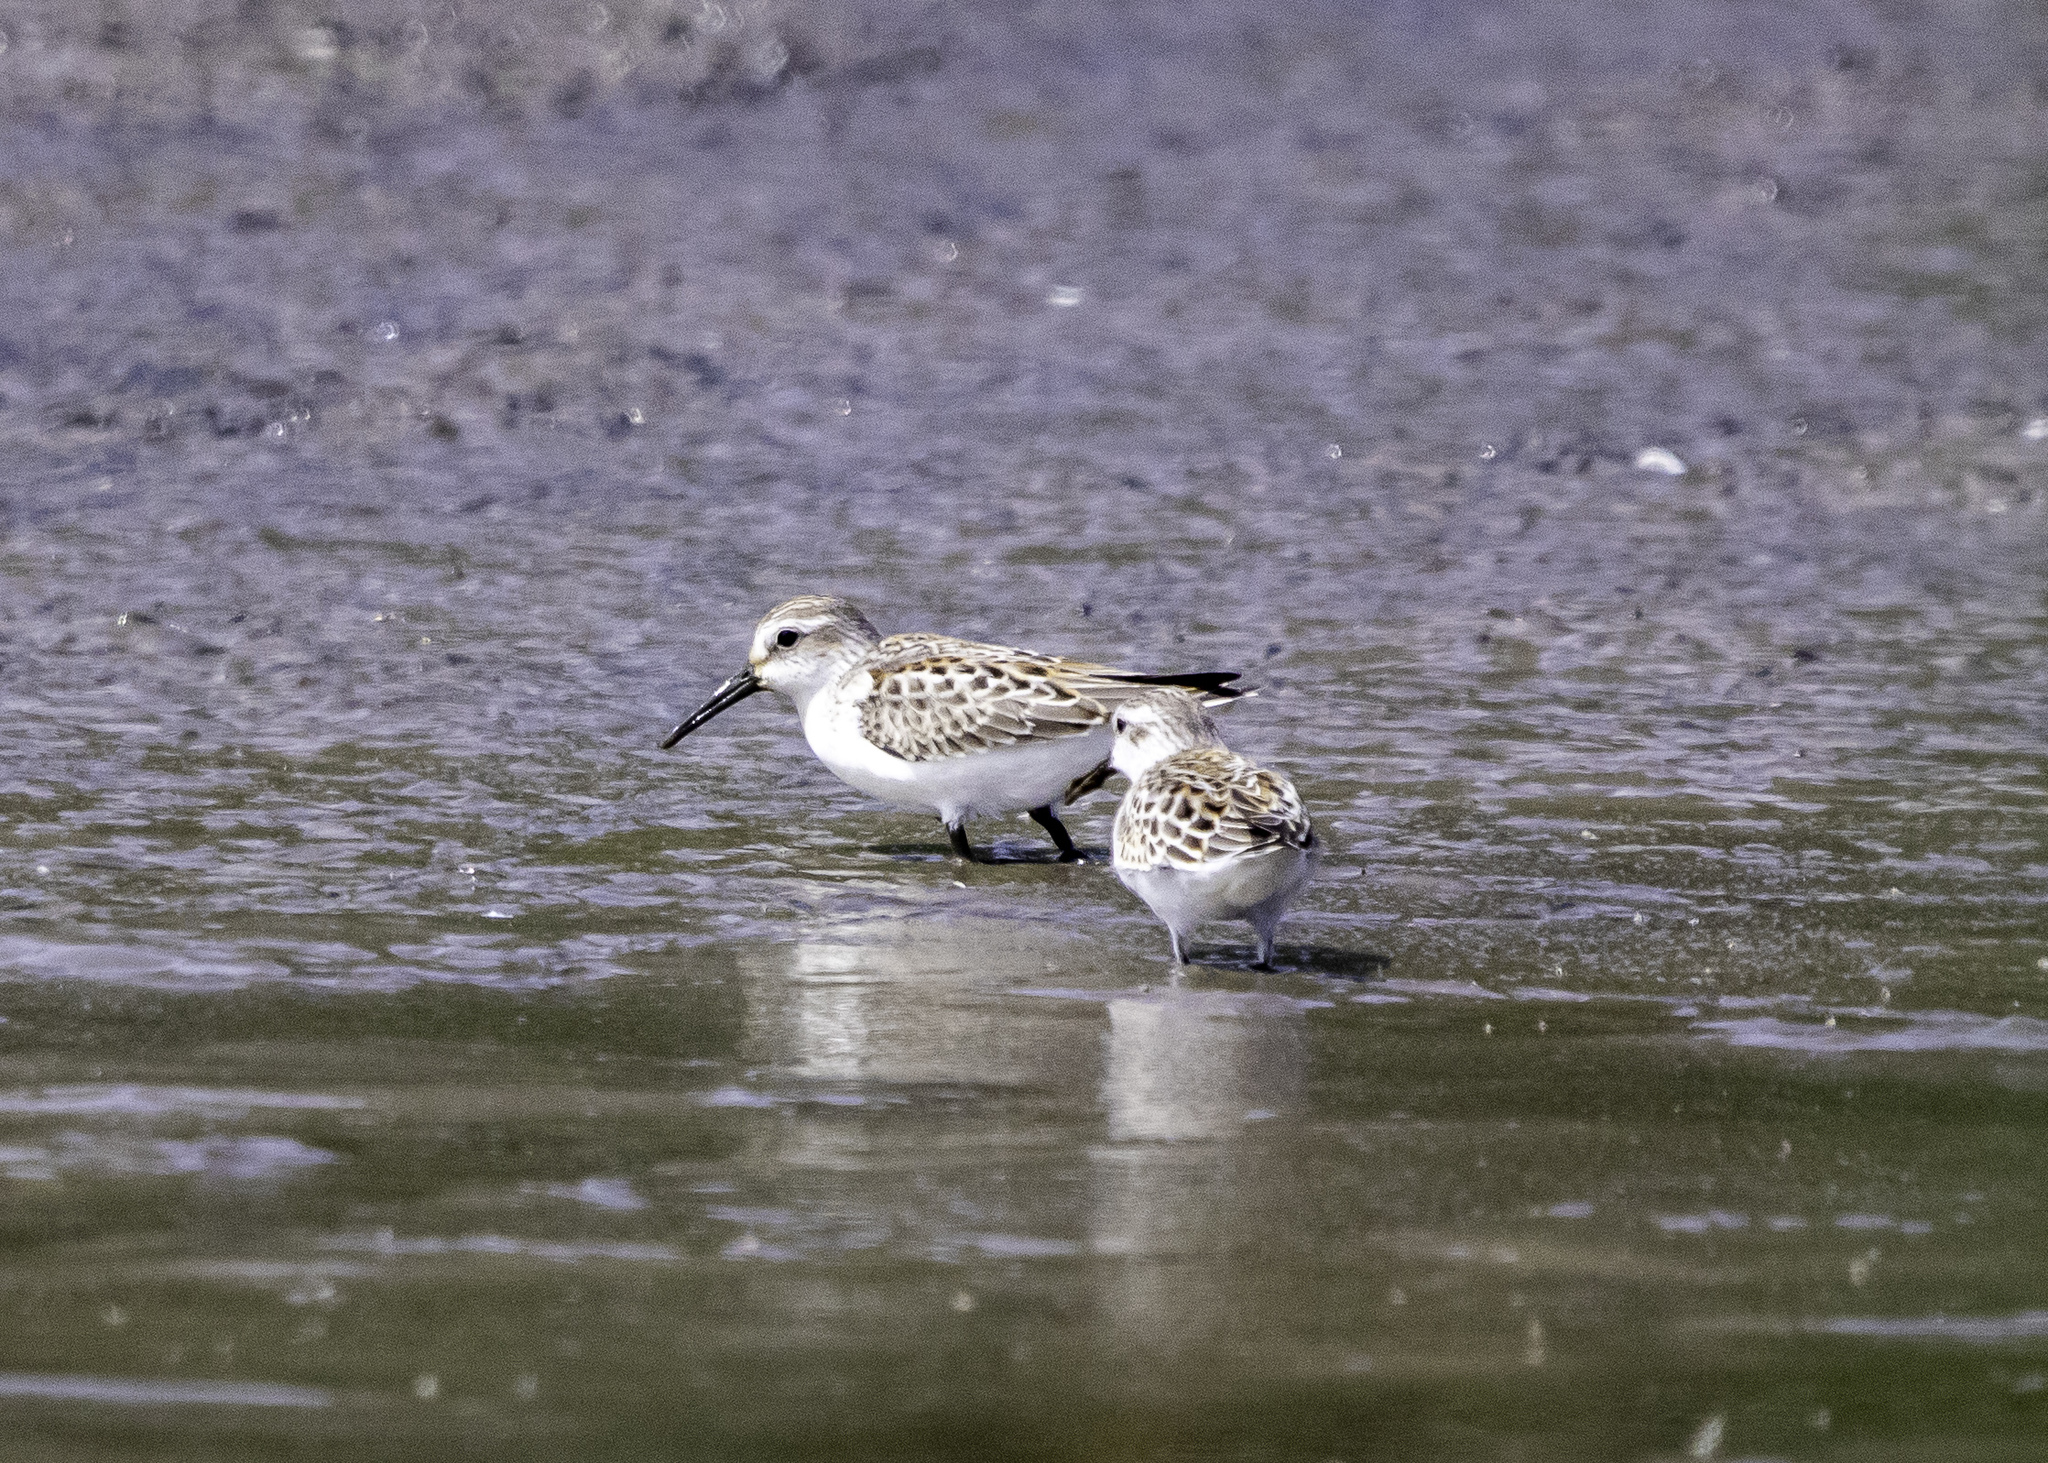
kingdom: Animalia
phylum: Chordata
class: Aves
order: Charadriiformes
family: Scolopacidae
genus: Calidris
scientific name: Calidris mauri
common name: Western sandpiper
